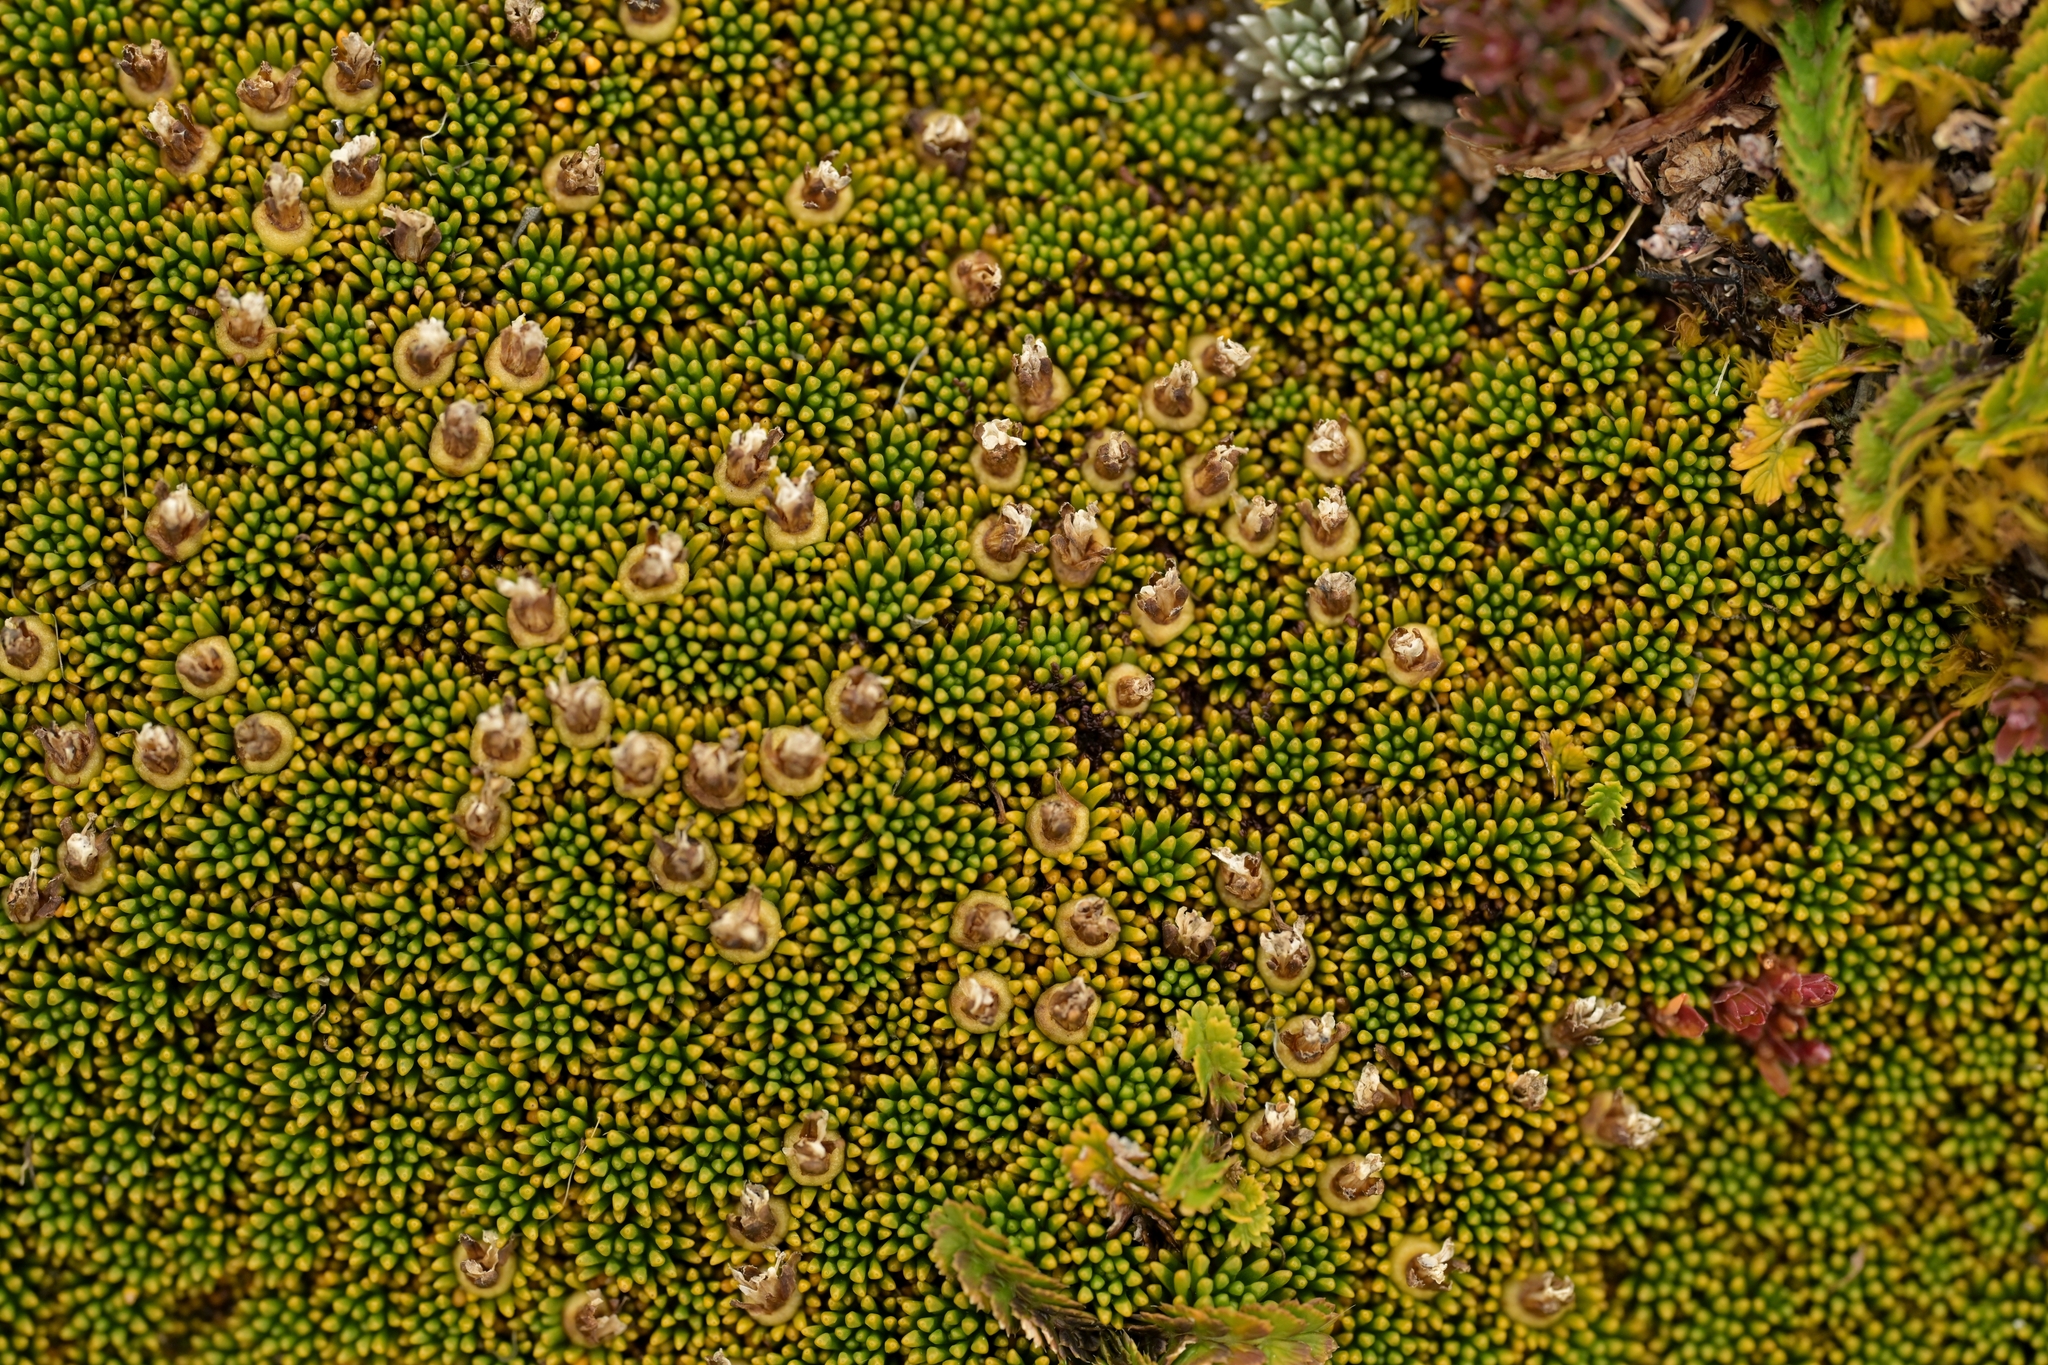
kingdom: Plantae
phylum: Tracheophyta
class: Magnoliopsida
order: Asterales
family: Stylidiaceae
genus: Phyllachne
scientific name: Phyllachne colensoi
